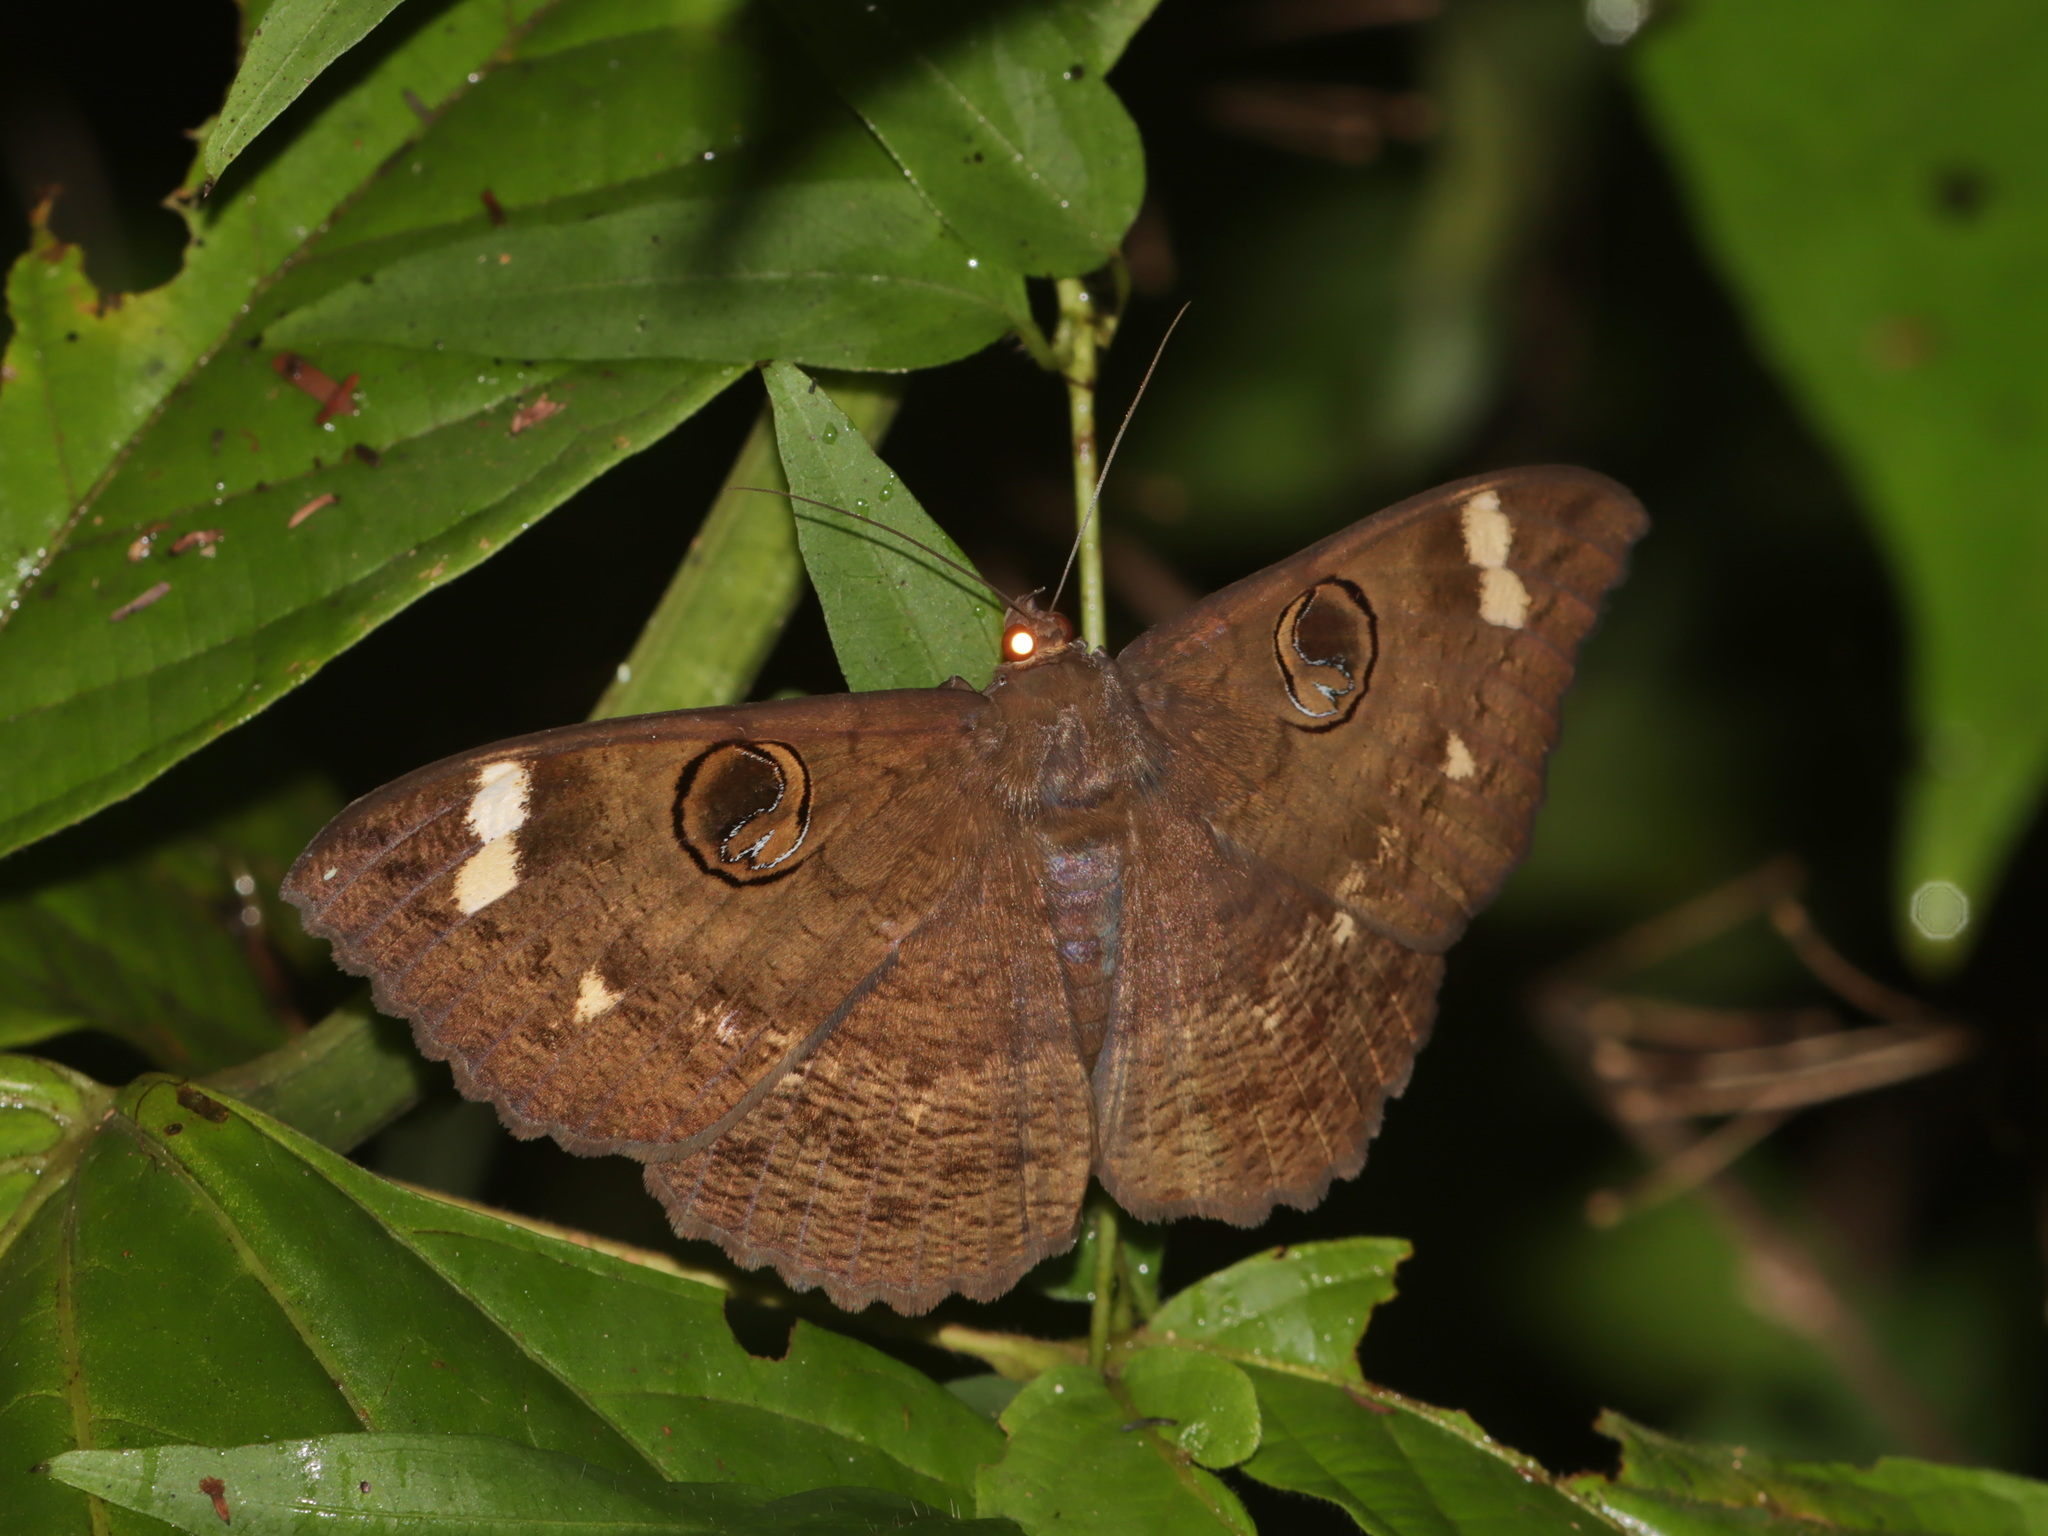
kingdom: Animalia
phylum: Arthropoda
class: Insecta
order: Lepidoptera
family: Erebidae
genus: Erebus
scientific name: Erebus hieroglyphica
